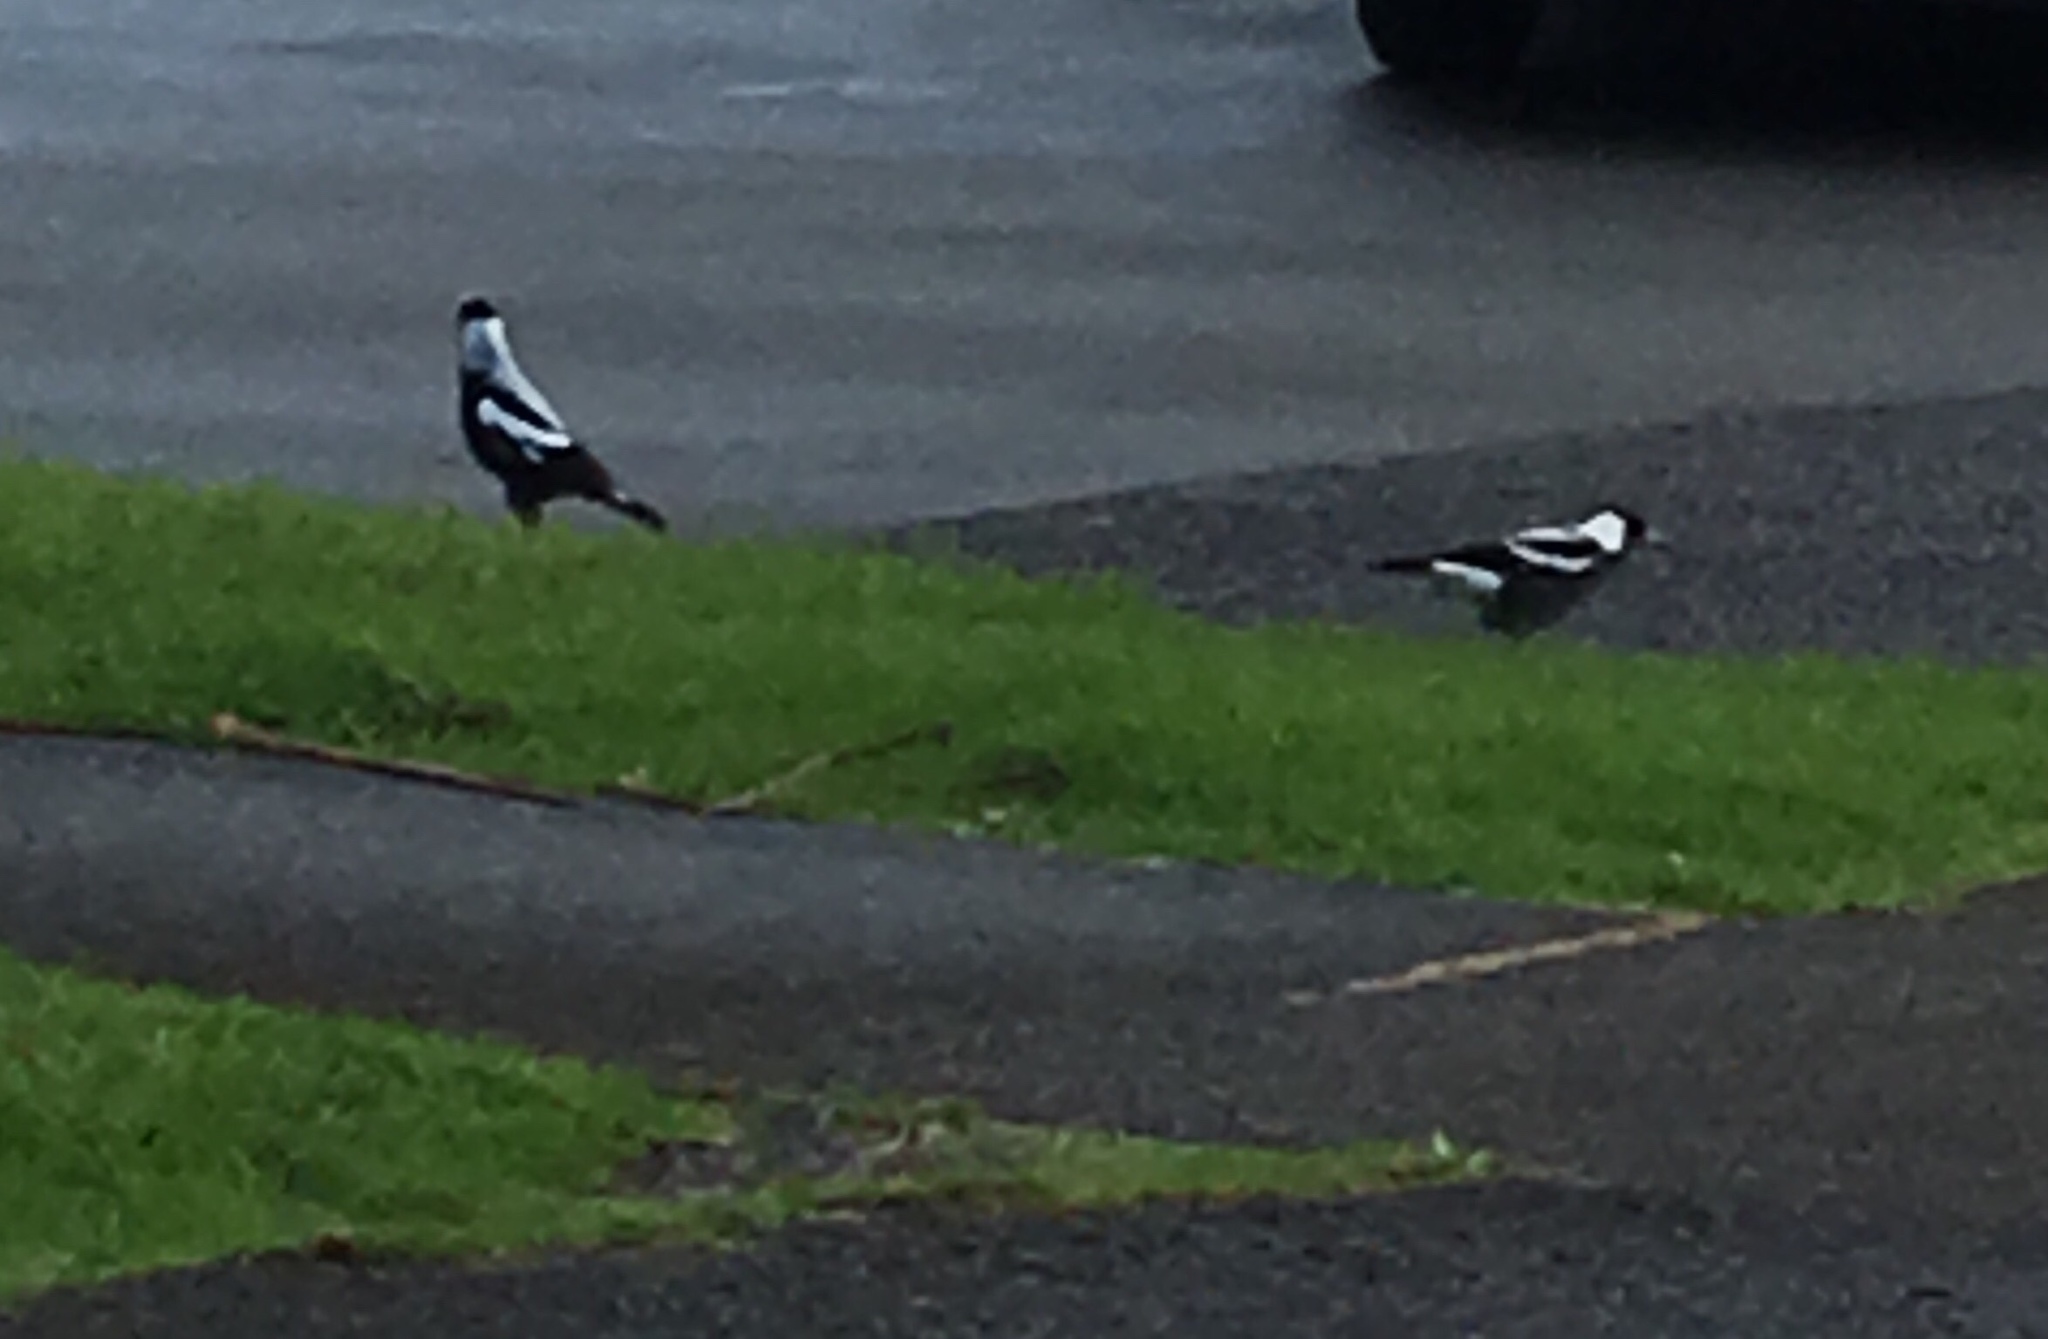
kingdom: Animalia
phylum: Chordata
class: Aves
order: Passeriformes
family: Cracticidae
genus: Gymnorhina
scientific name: Gymnorhina tibicen
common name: Australian magpie
